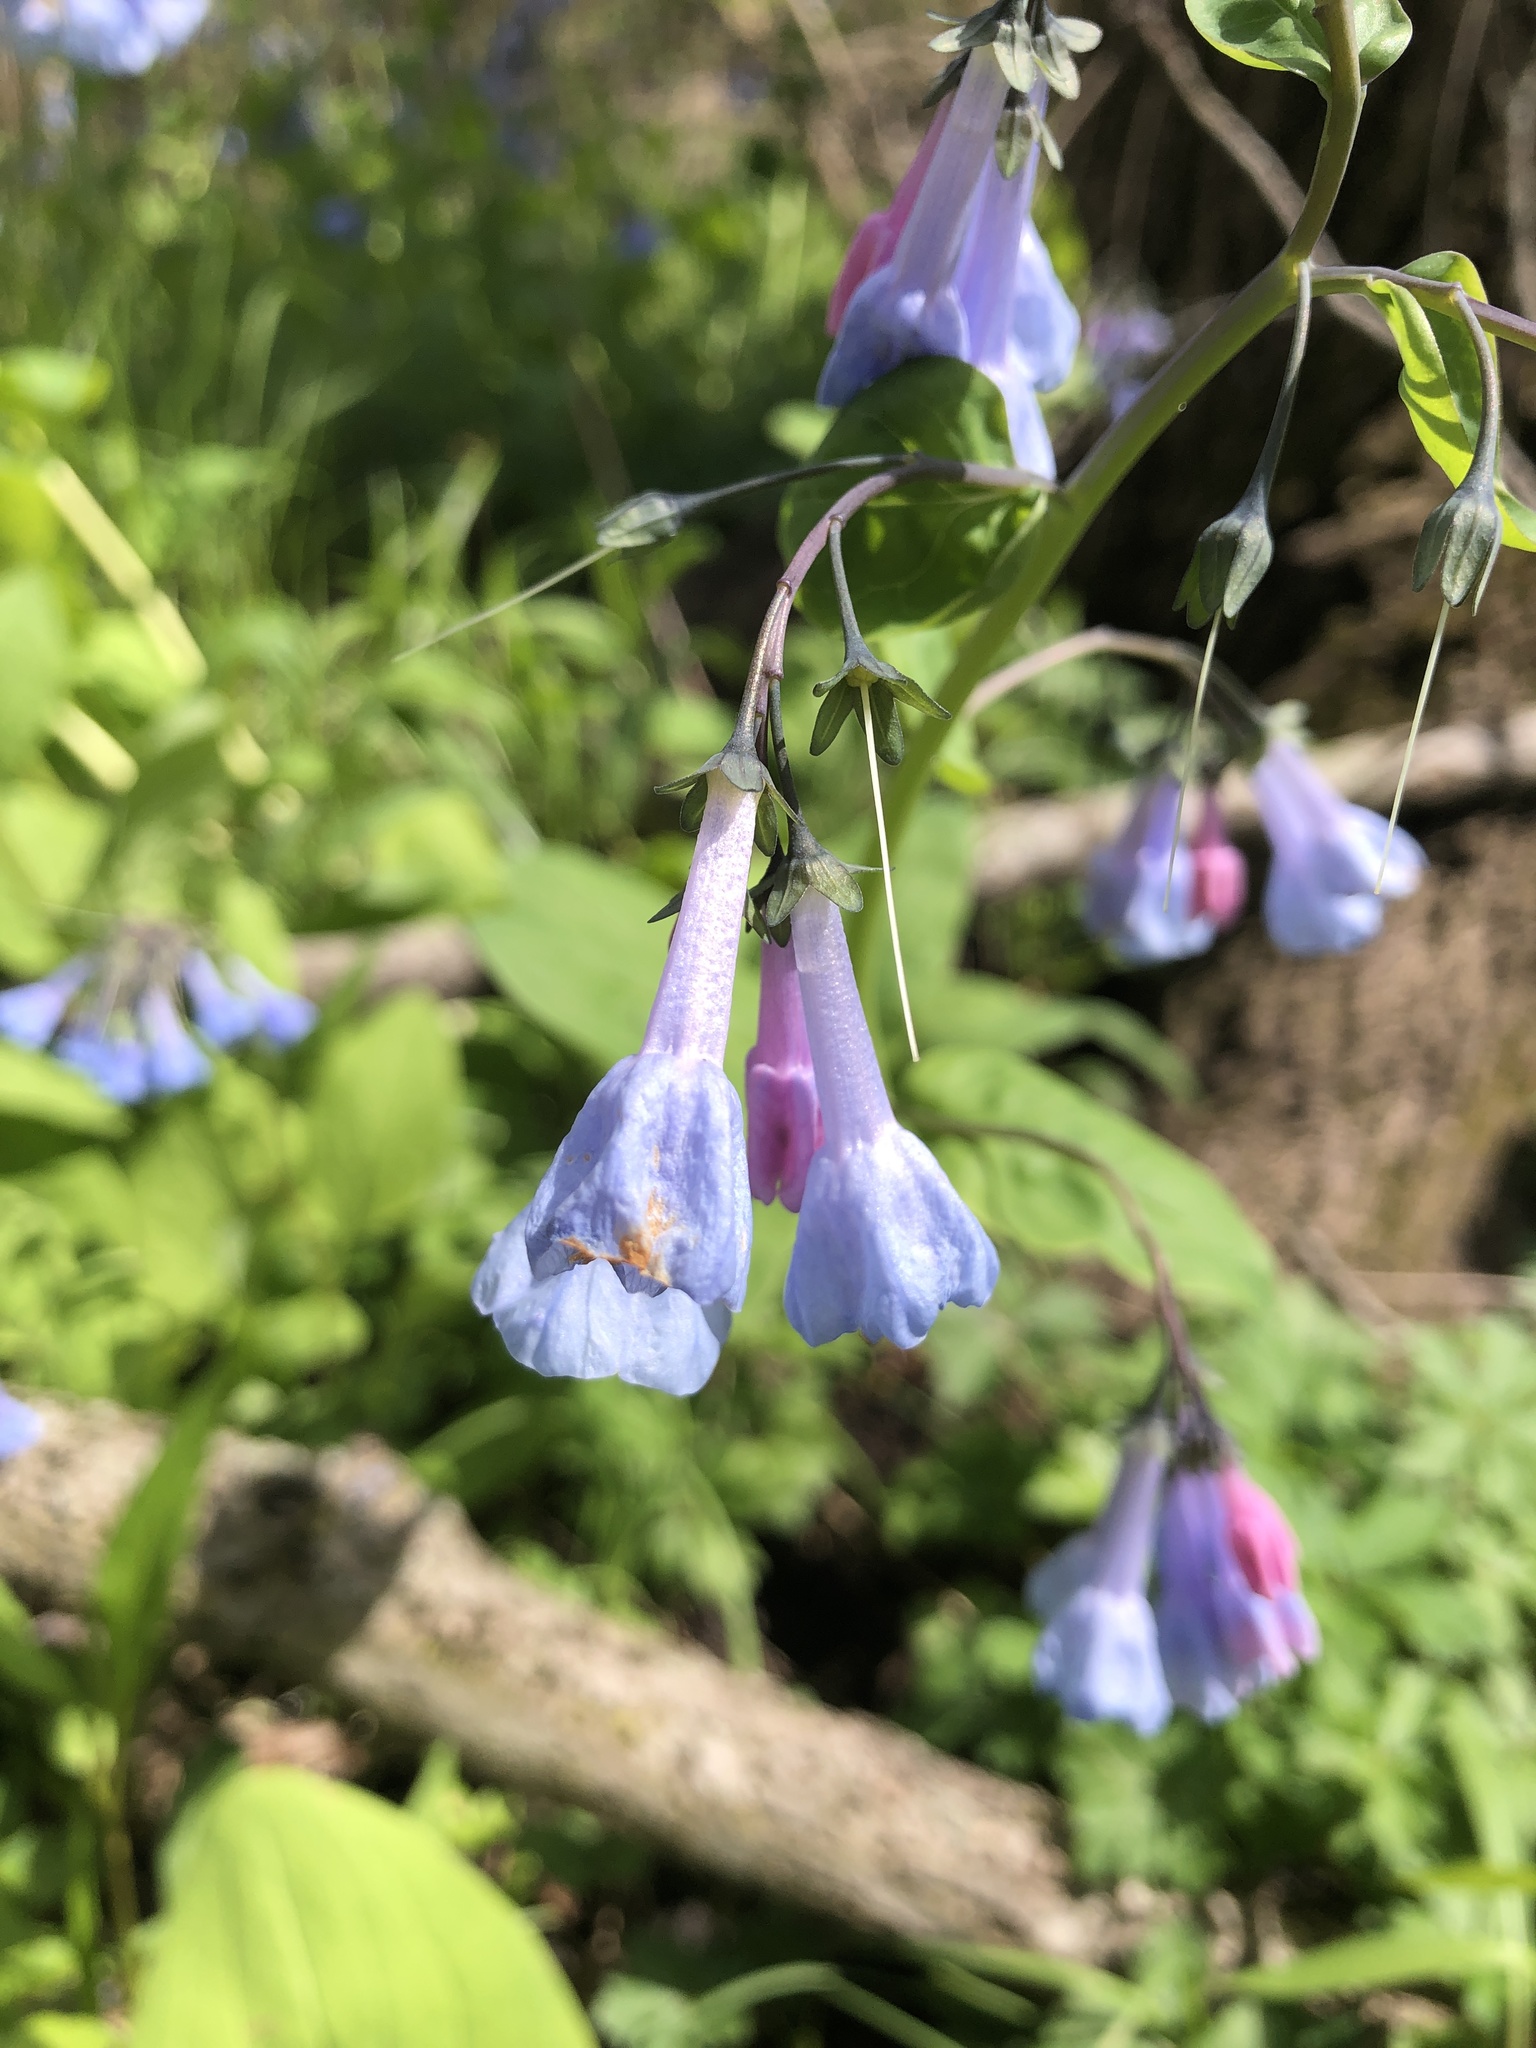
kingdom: Plantae
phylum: Tracheophyta
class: Magnoliopsida
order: Boraginales
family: Boraginaceae
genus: Mertensia
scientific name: Mertensia virginica
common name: Virginia bluebells
